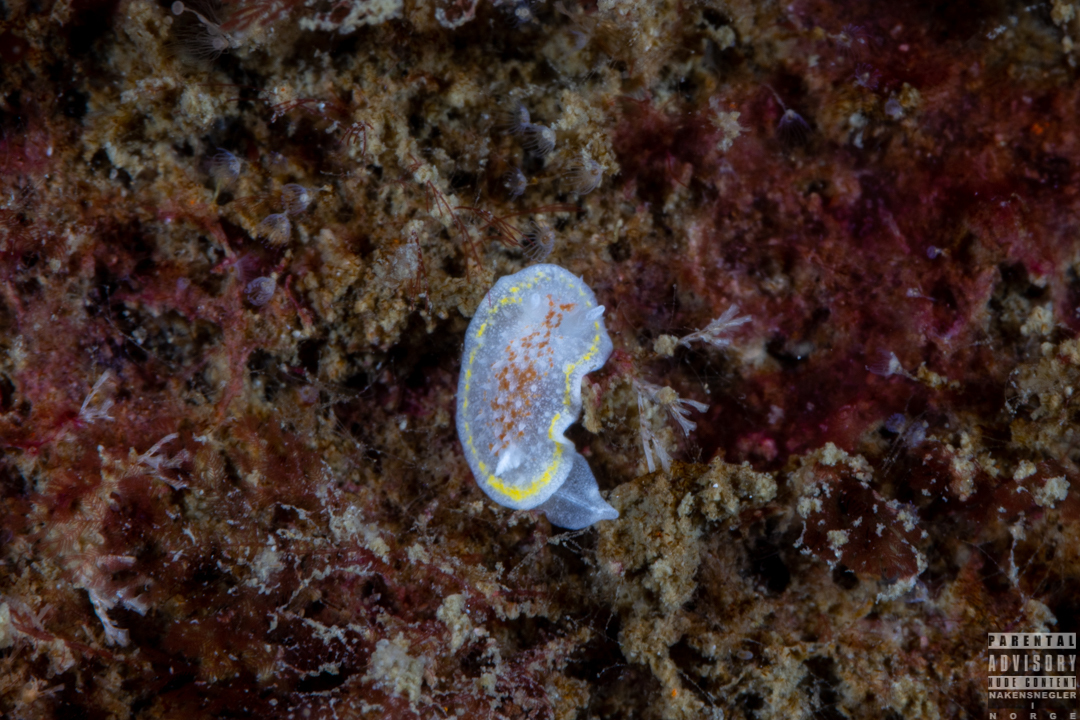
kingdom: Animalia
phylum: Mollusca
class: Gastropoda
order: Nudibranchia
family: Calycidorididae
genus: Diaphorodoris
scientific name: Diaphorodoris luteocincta
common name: Fried egg nudibranch
